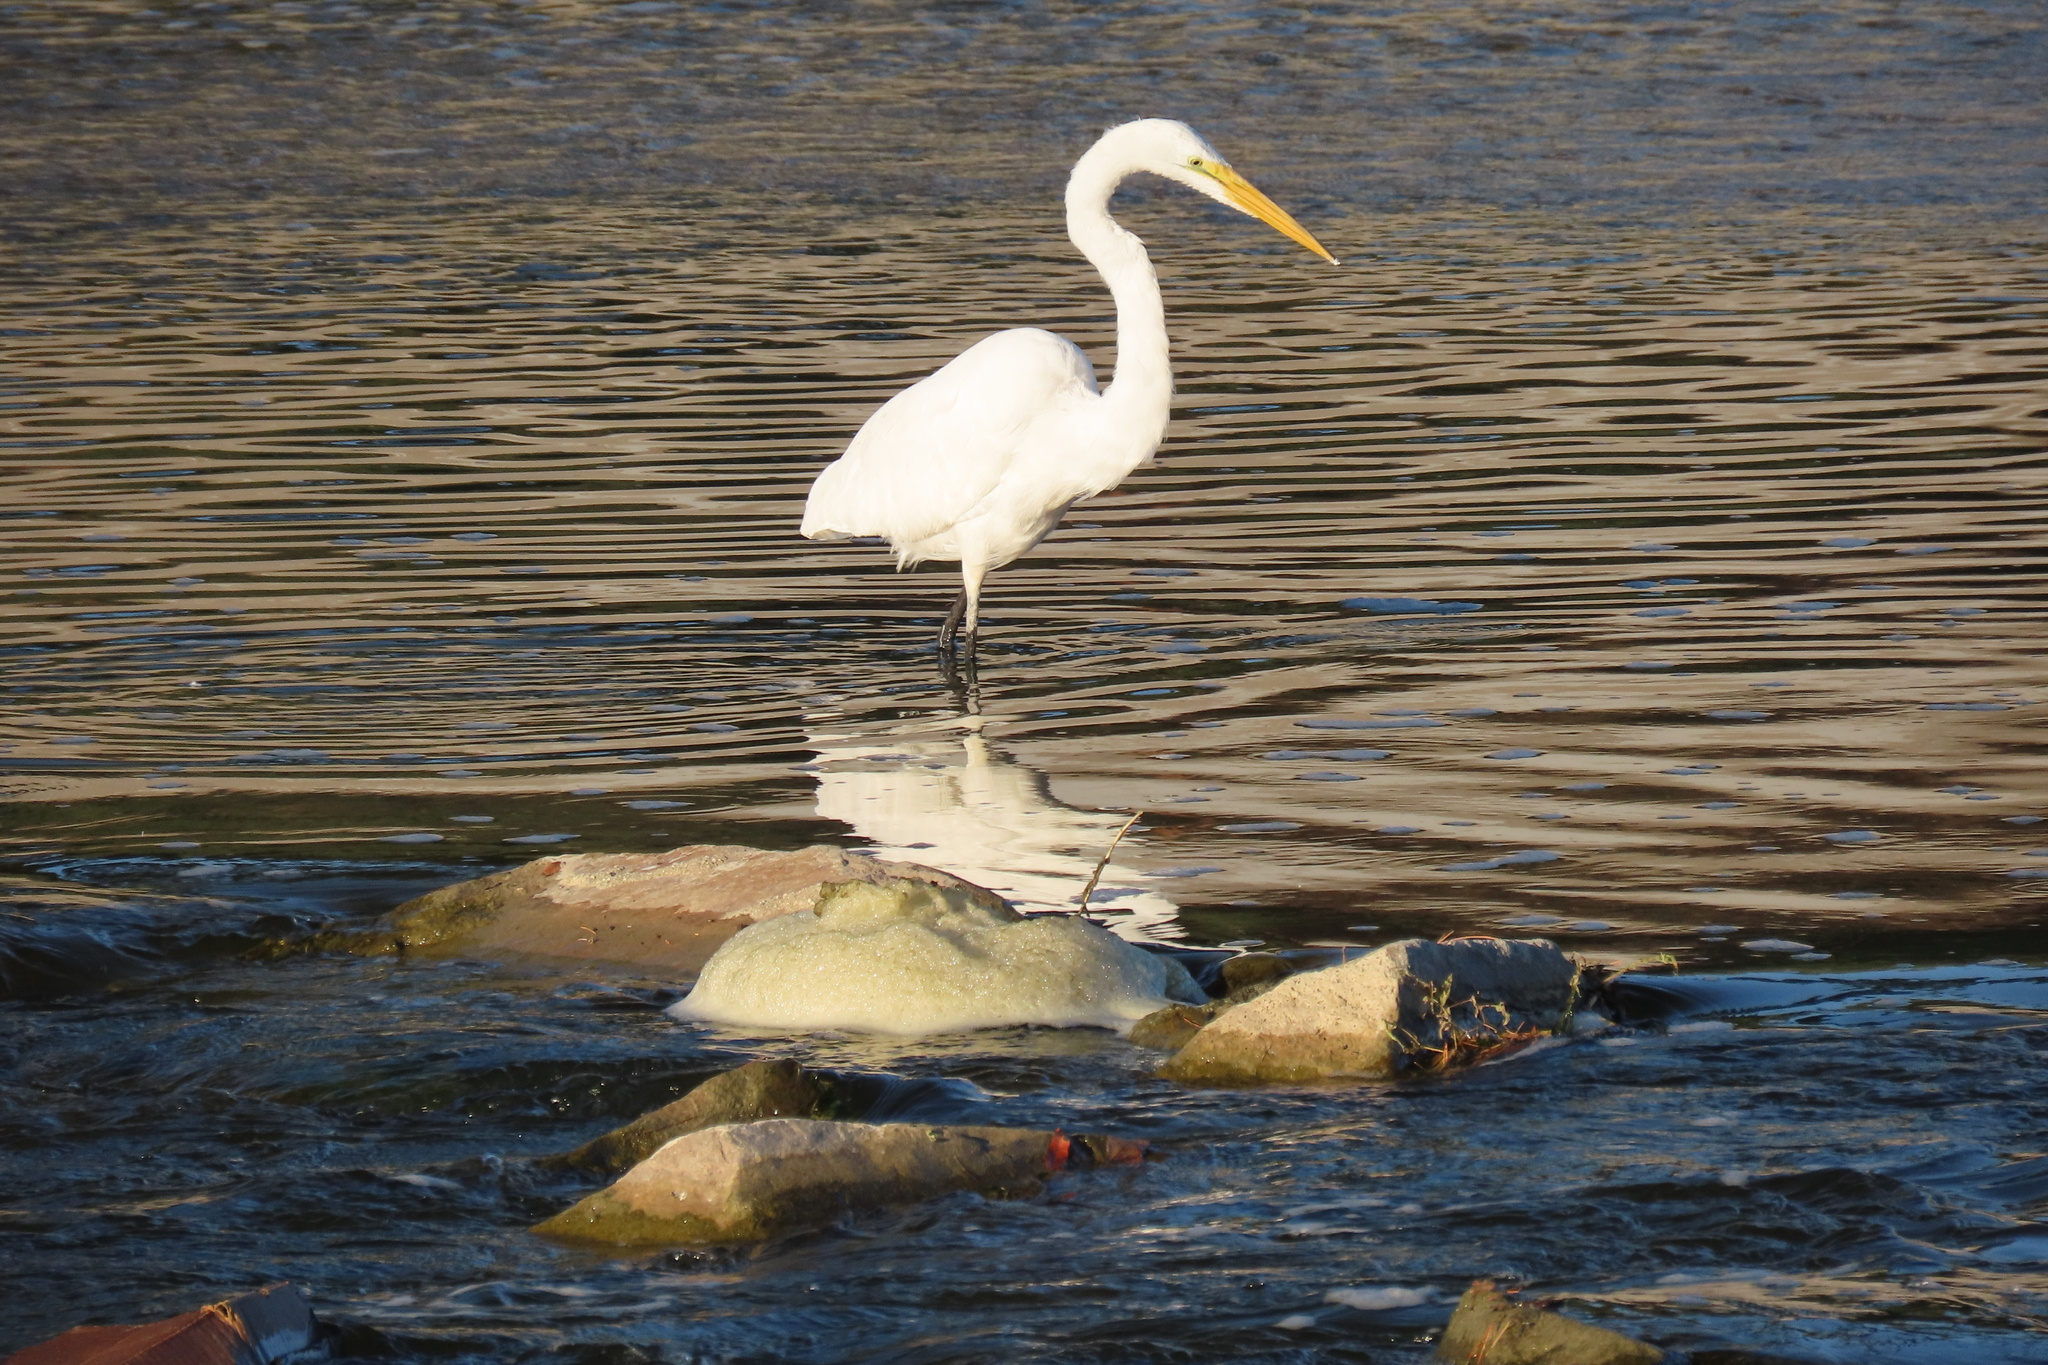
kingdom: Animalia
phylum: Chordata
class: Aves
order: Pelecaniformes
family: Ardeidae
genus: Ardea
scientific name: Ardea alba
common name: Great egret
